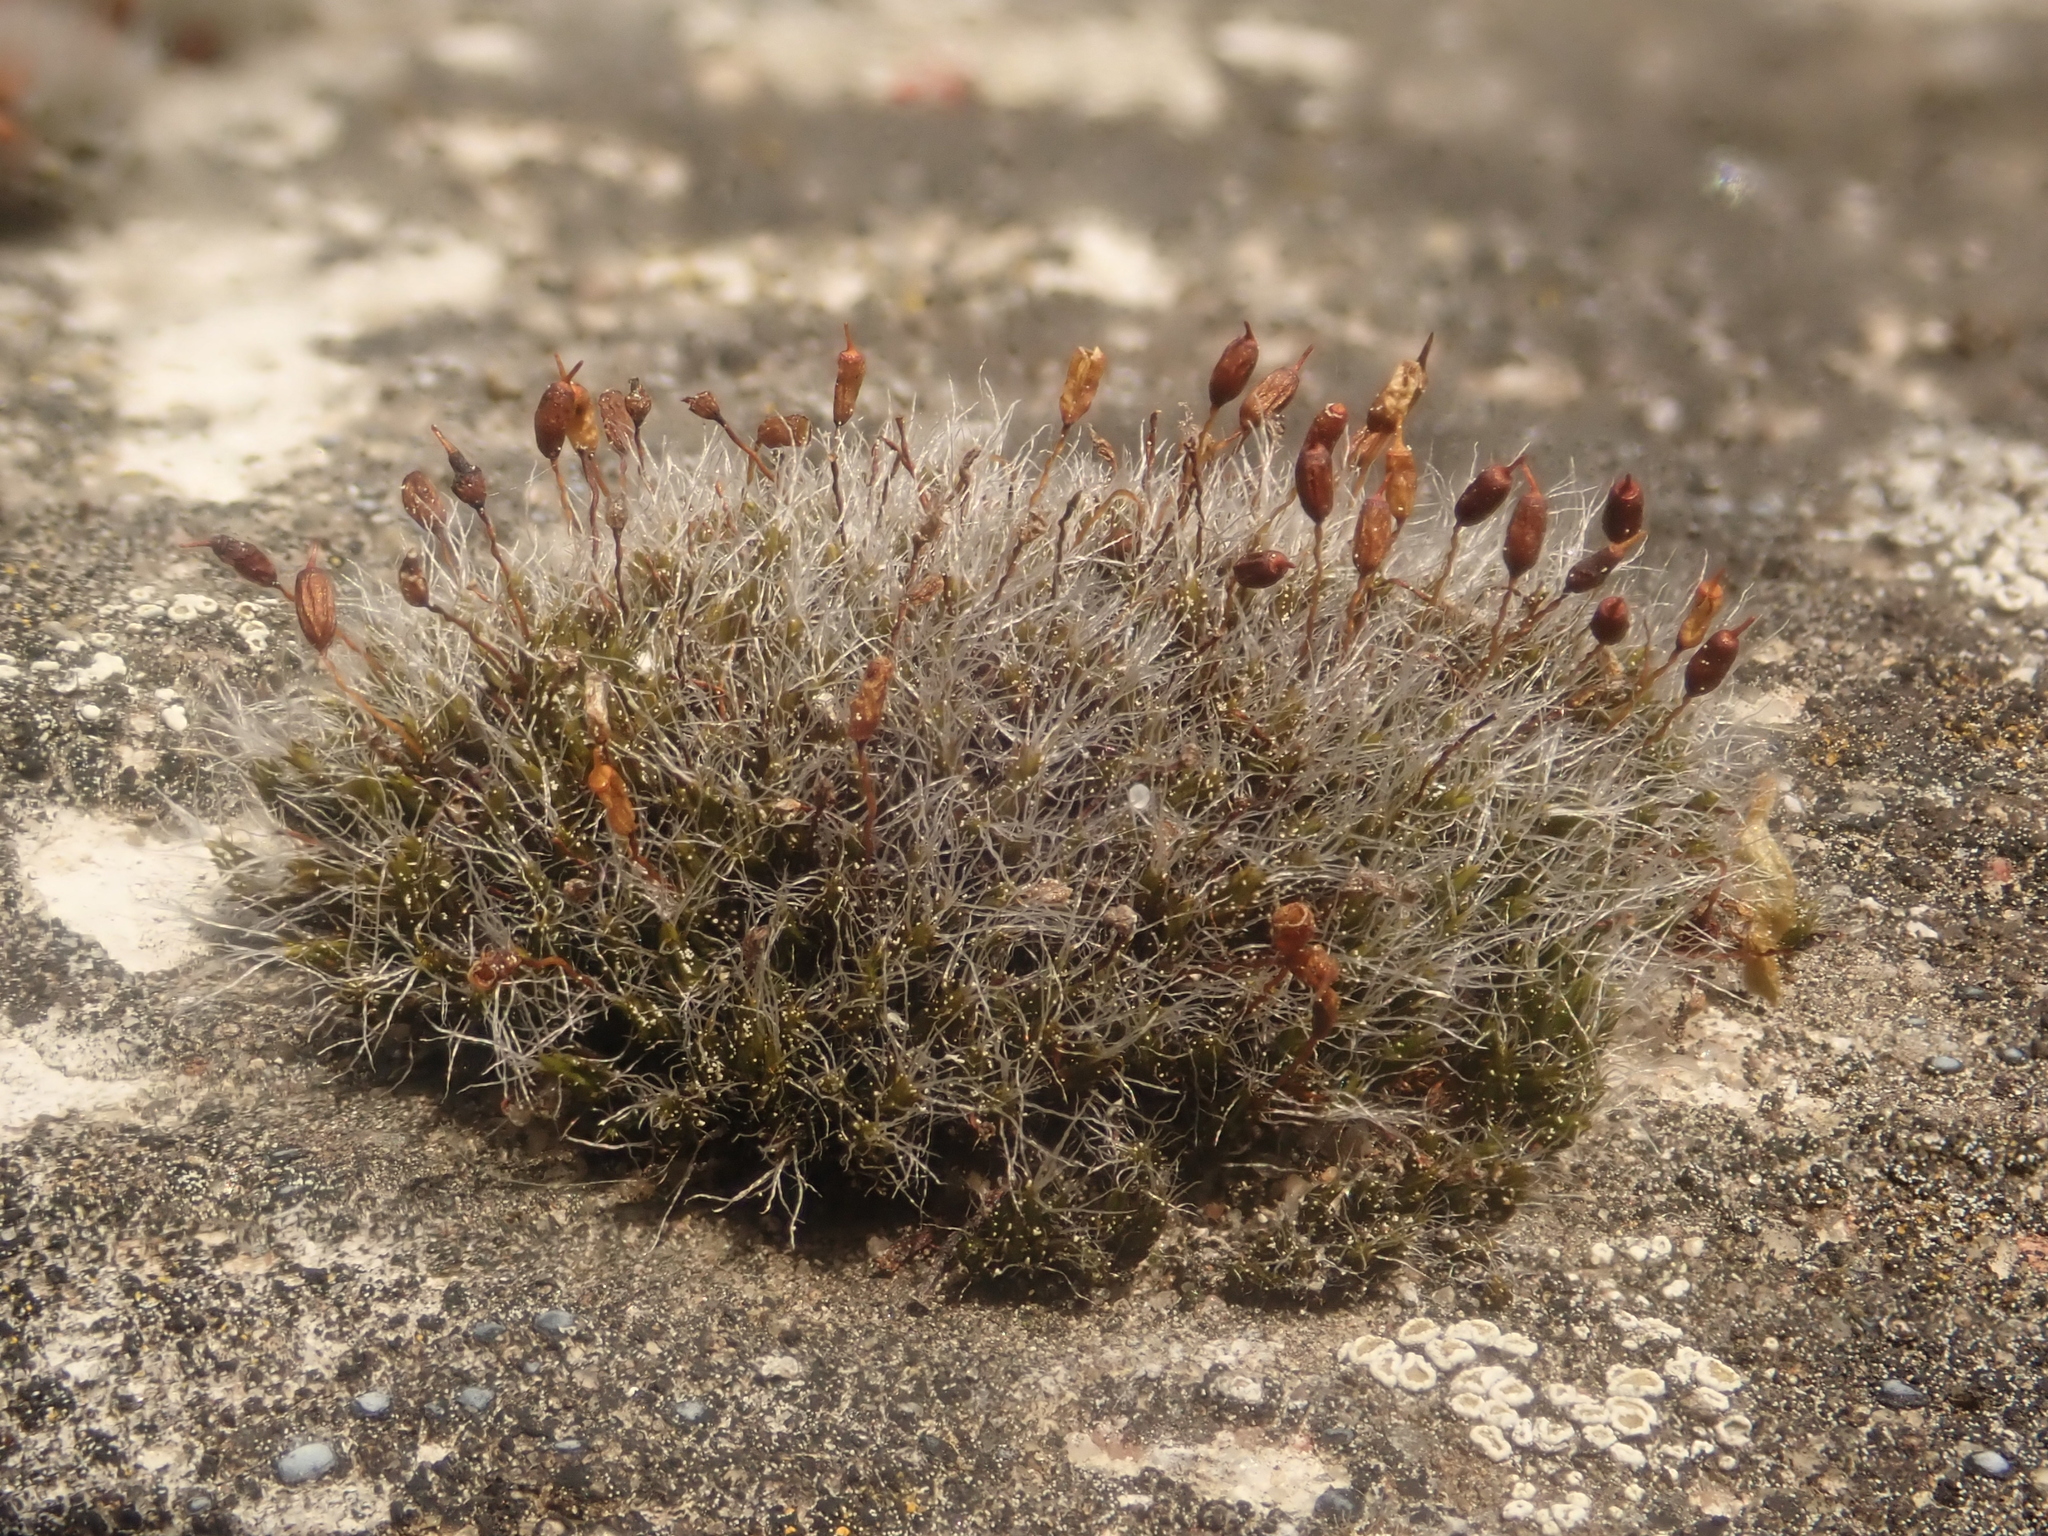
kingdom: Plantae
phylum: Bryophyta
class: Bryopsida
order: Grimmiales
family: Grimmiaceae
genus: Grimmia
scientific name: Grimmia pulvinata
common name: Grey-cushioned grimmia
